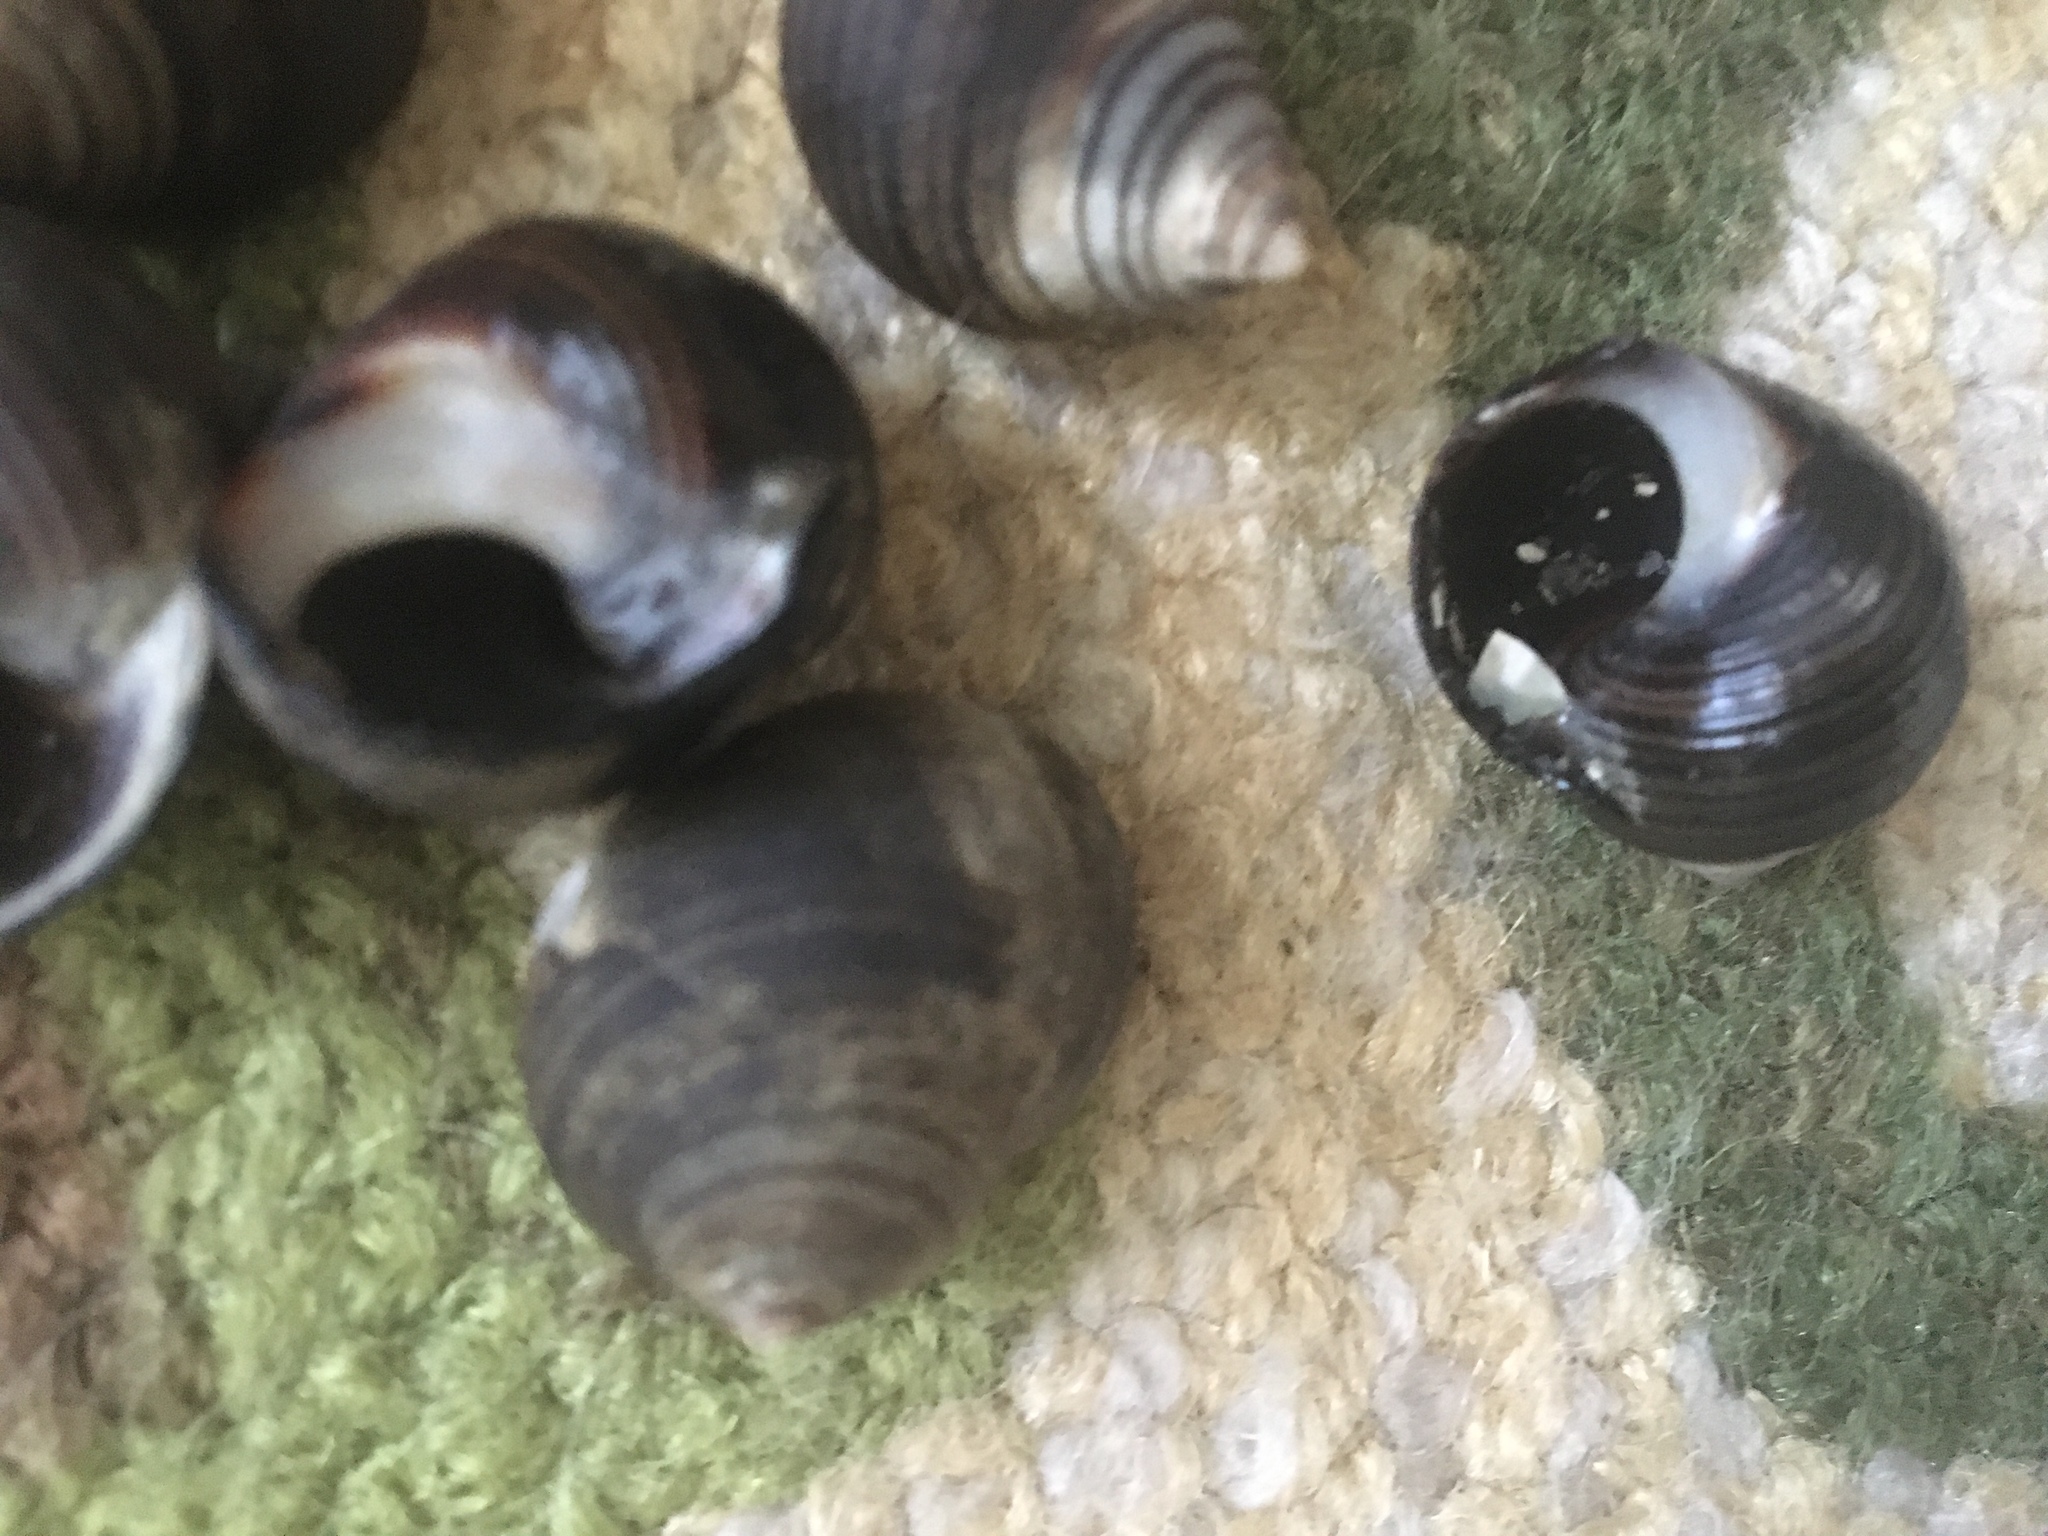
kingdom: Animalia
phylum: Mollusca
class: Gastropoda
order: Littorinimorpha
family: Littorinidae
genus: Littorina
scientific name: Littorina littorea
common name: Common periwinkle
